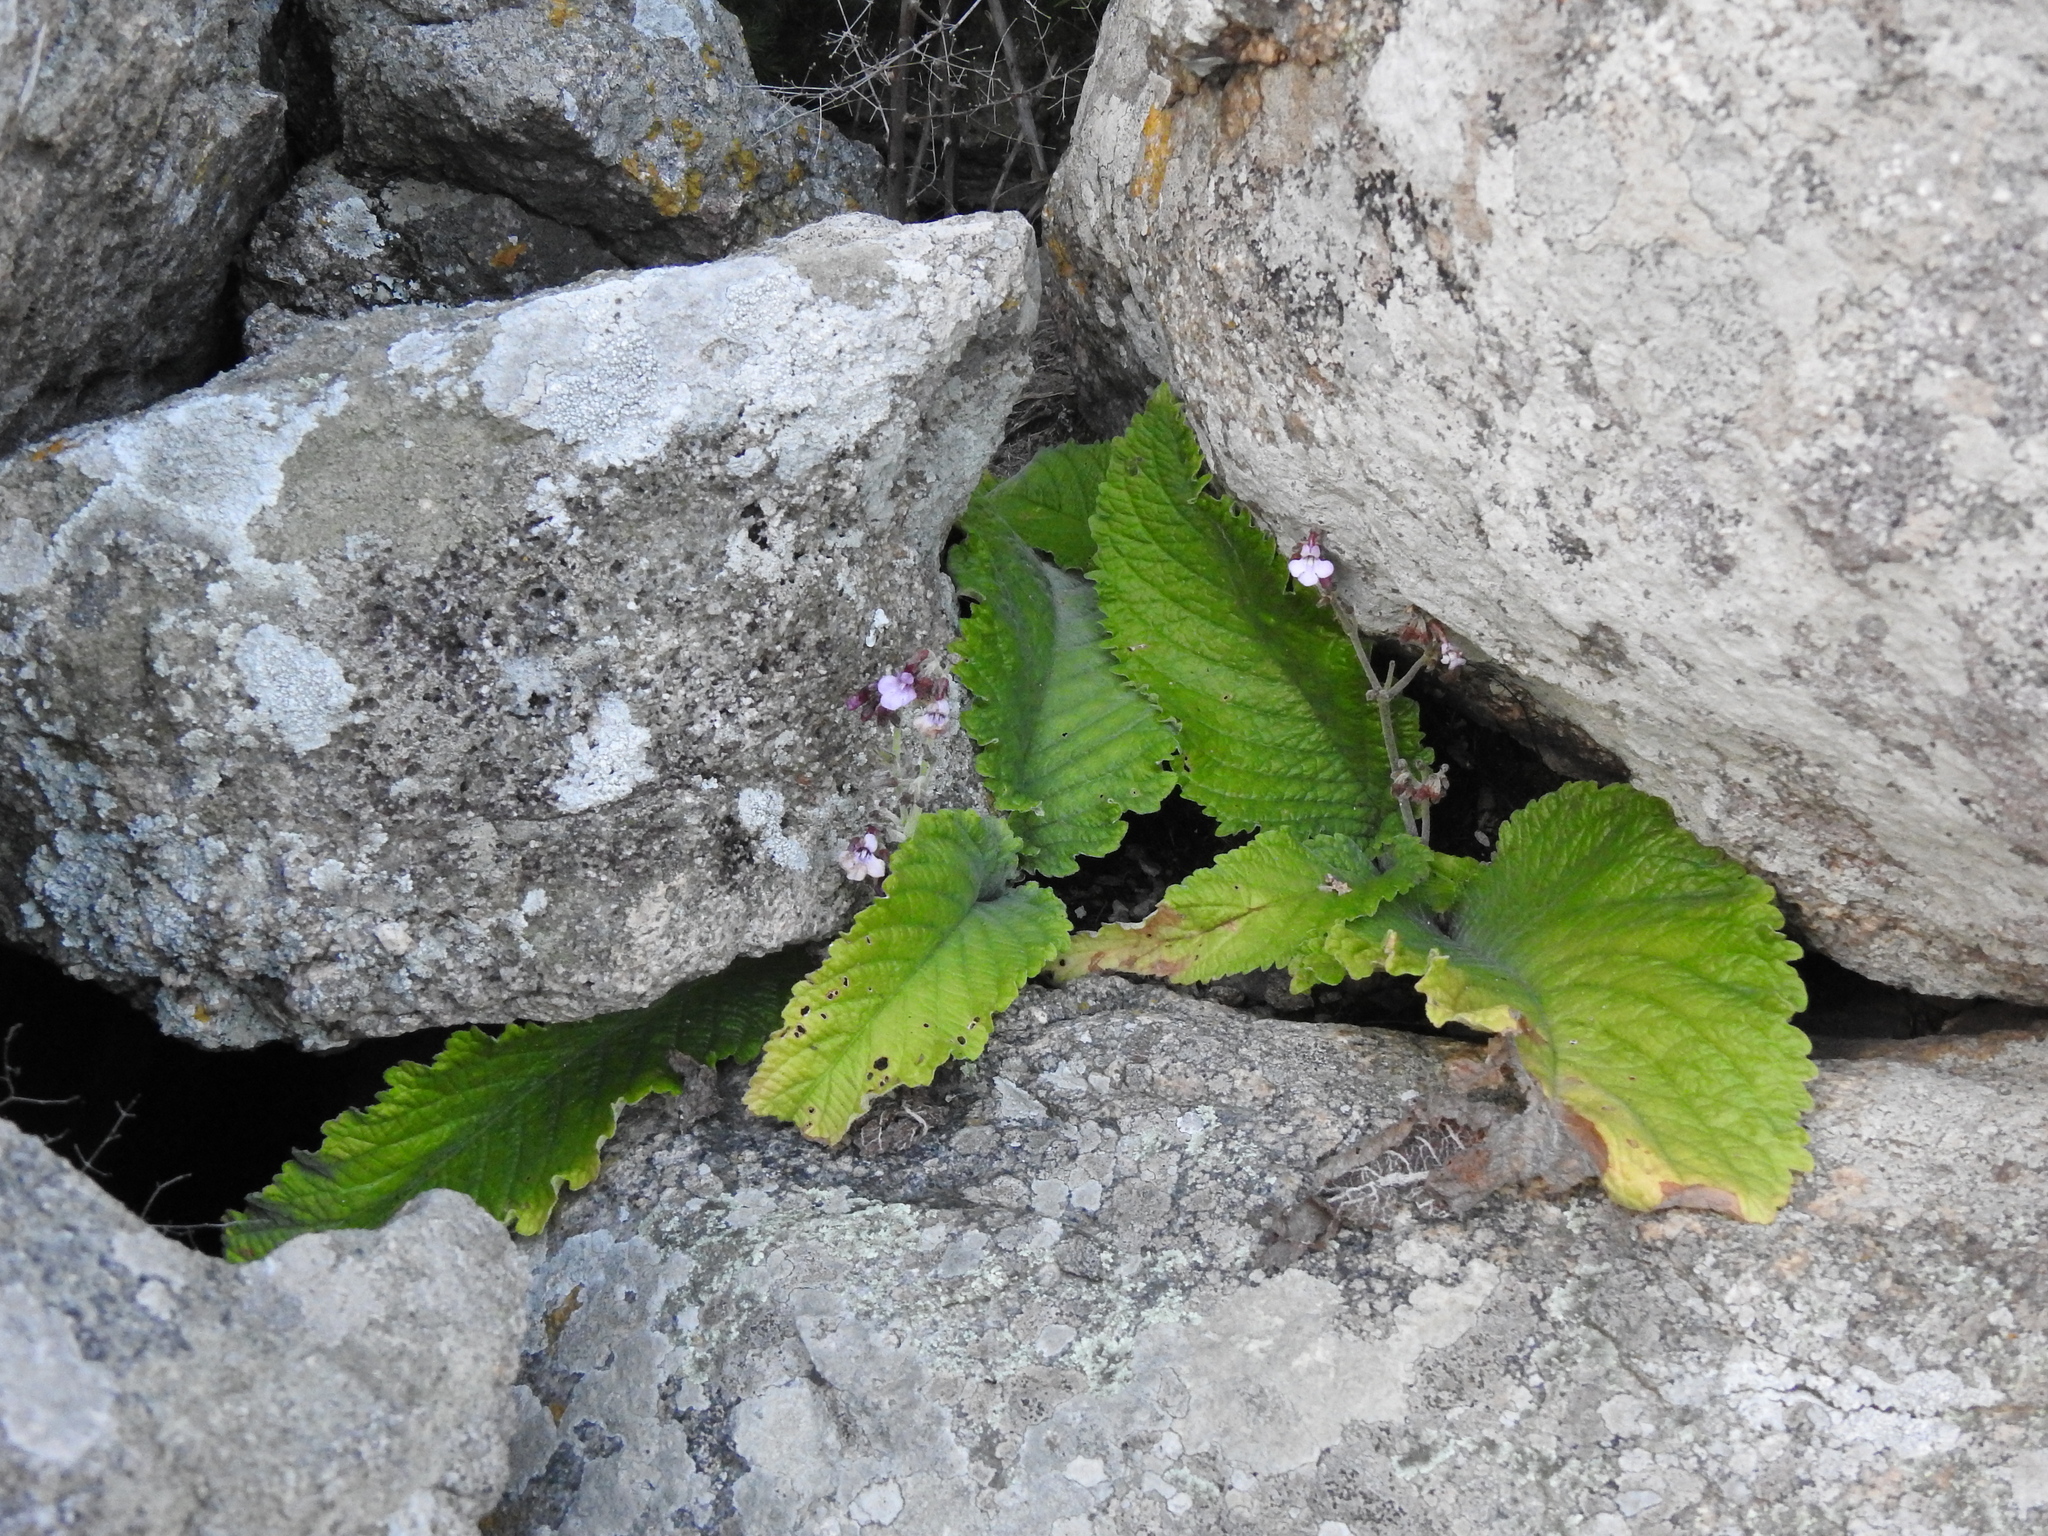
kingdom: Plantae
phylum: Tracheophyta
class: Magnoliopsida
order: Lamiales
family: Gesneriaceae
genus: Streptocarpus
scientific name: Streptocarpus pole-evansii
